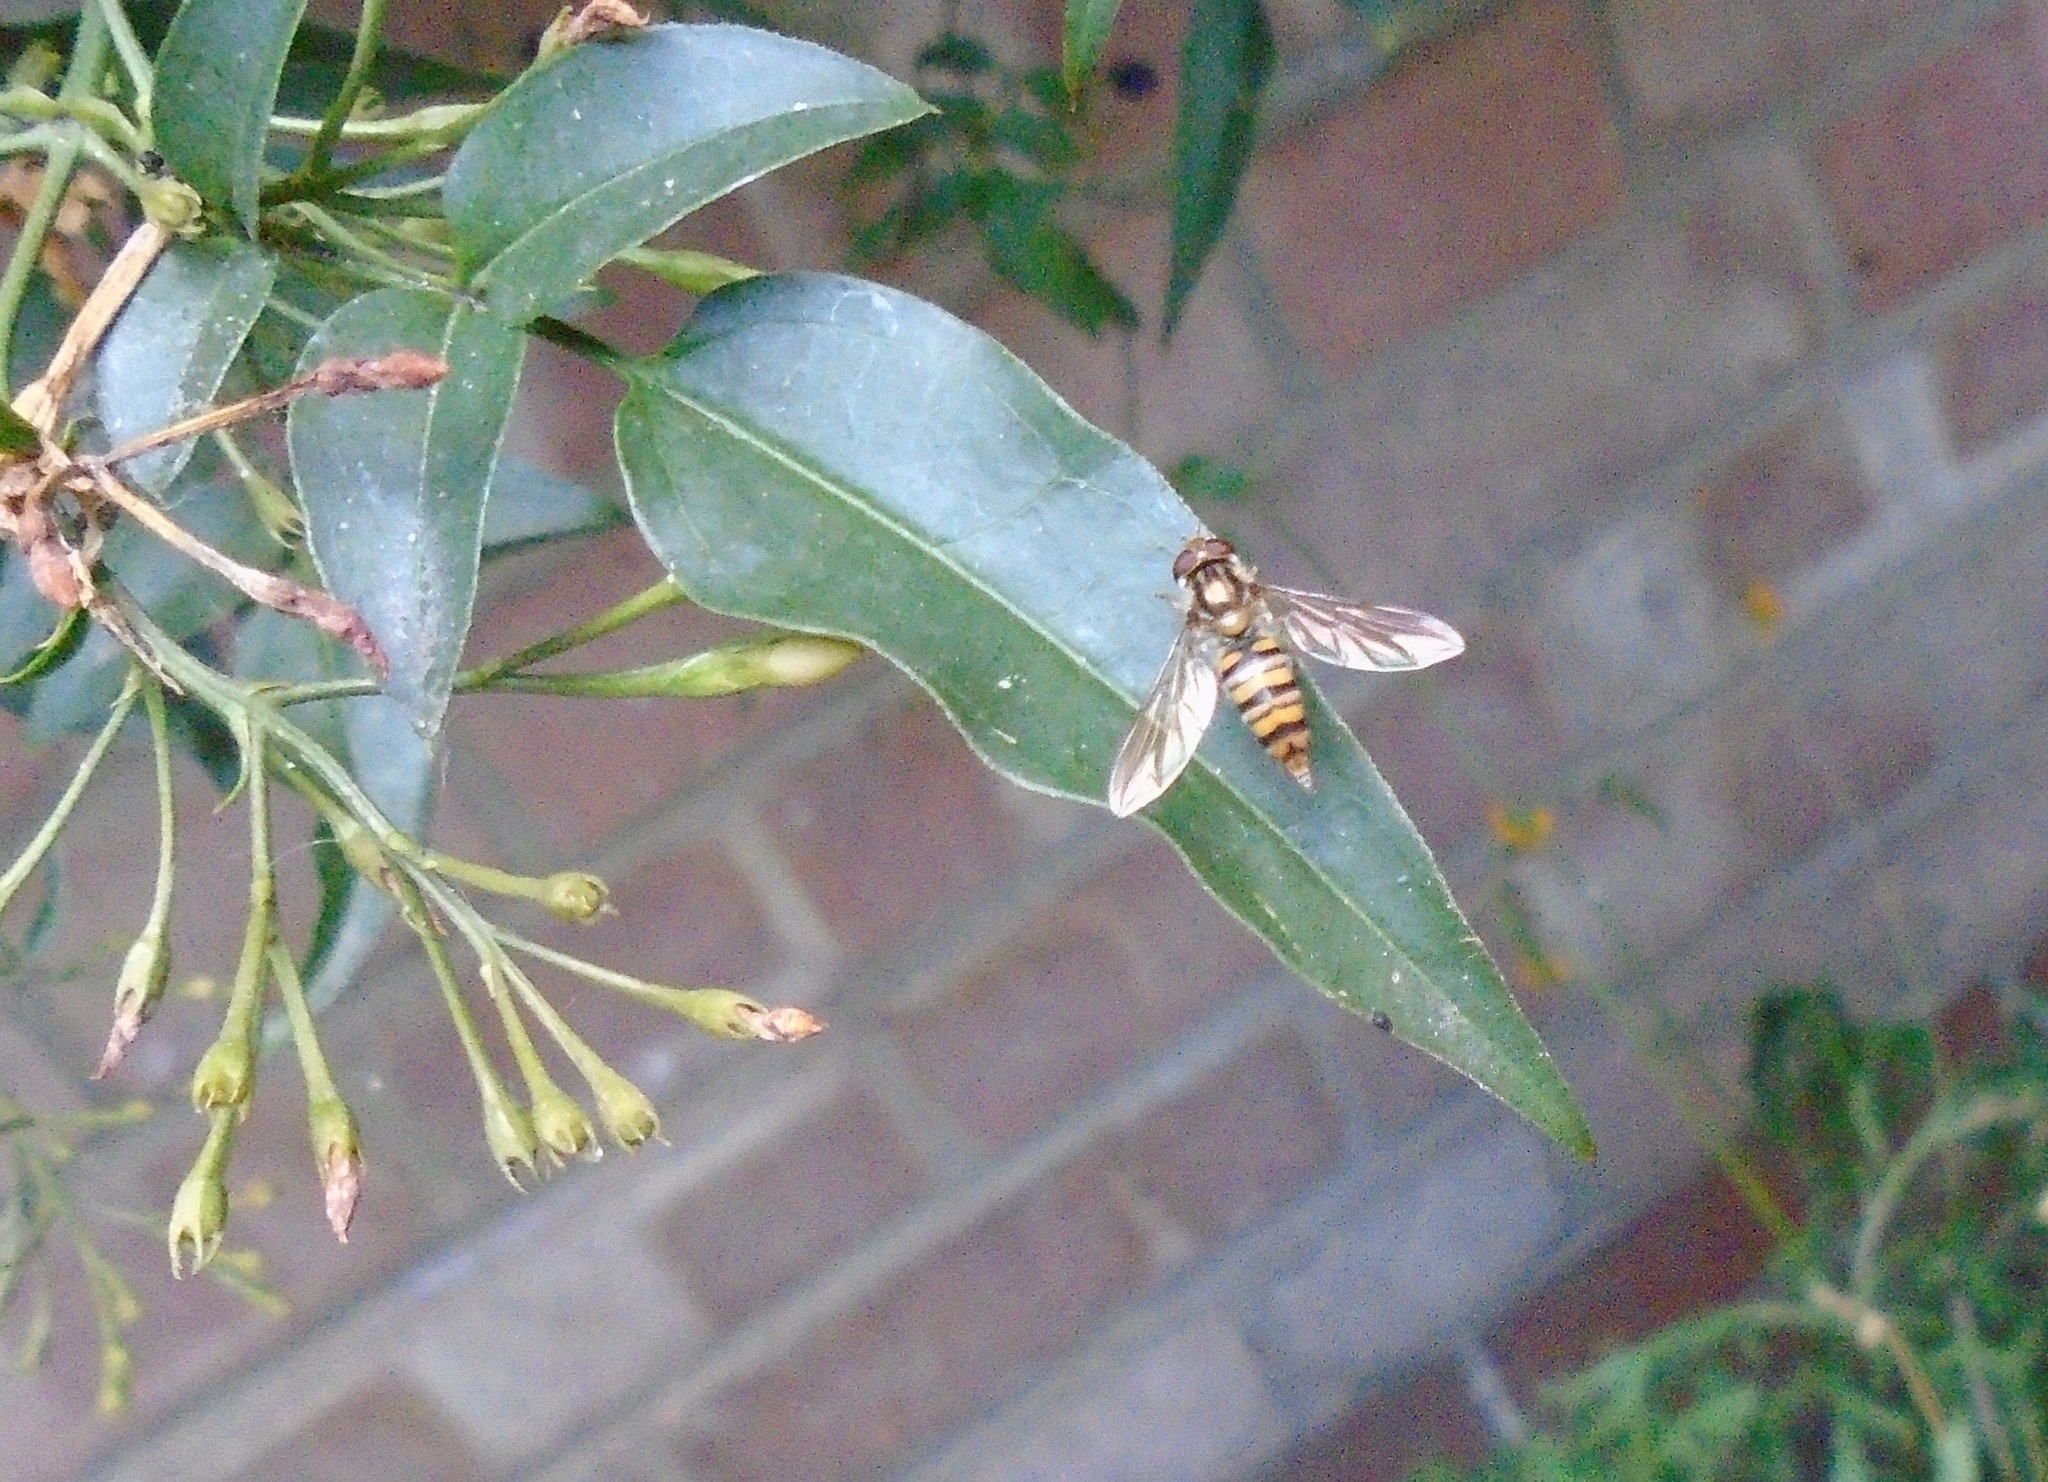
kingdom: Animalia
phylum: Arthropoda
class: Insecta
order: Diptera
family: Syrphidae
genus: Episyrphus
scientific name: Episyrphus balteatus
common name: Marmalade hoverfly
